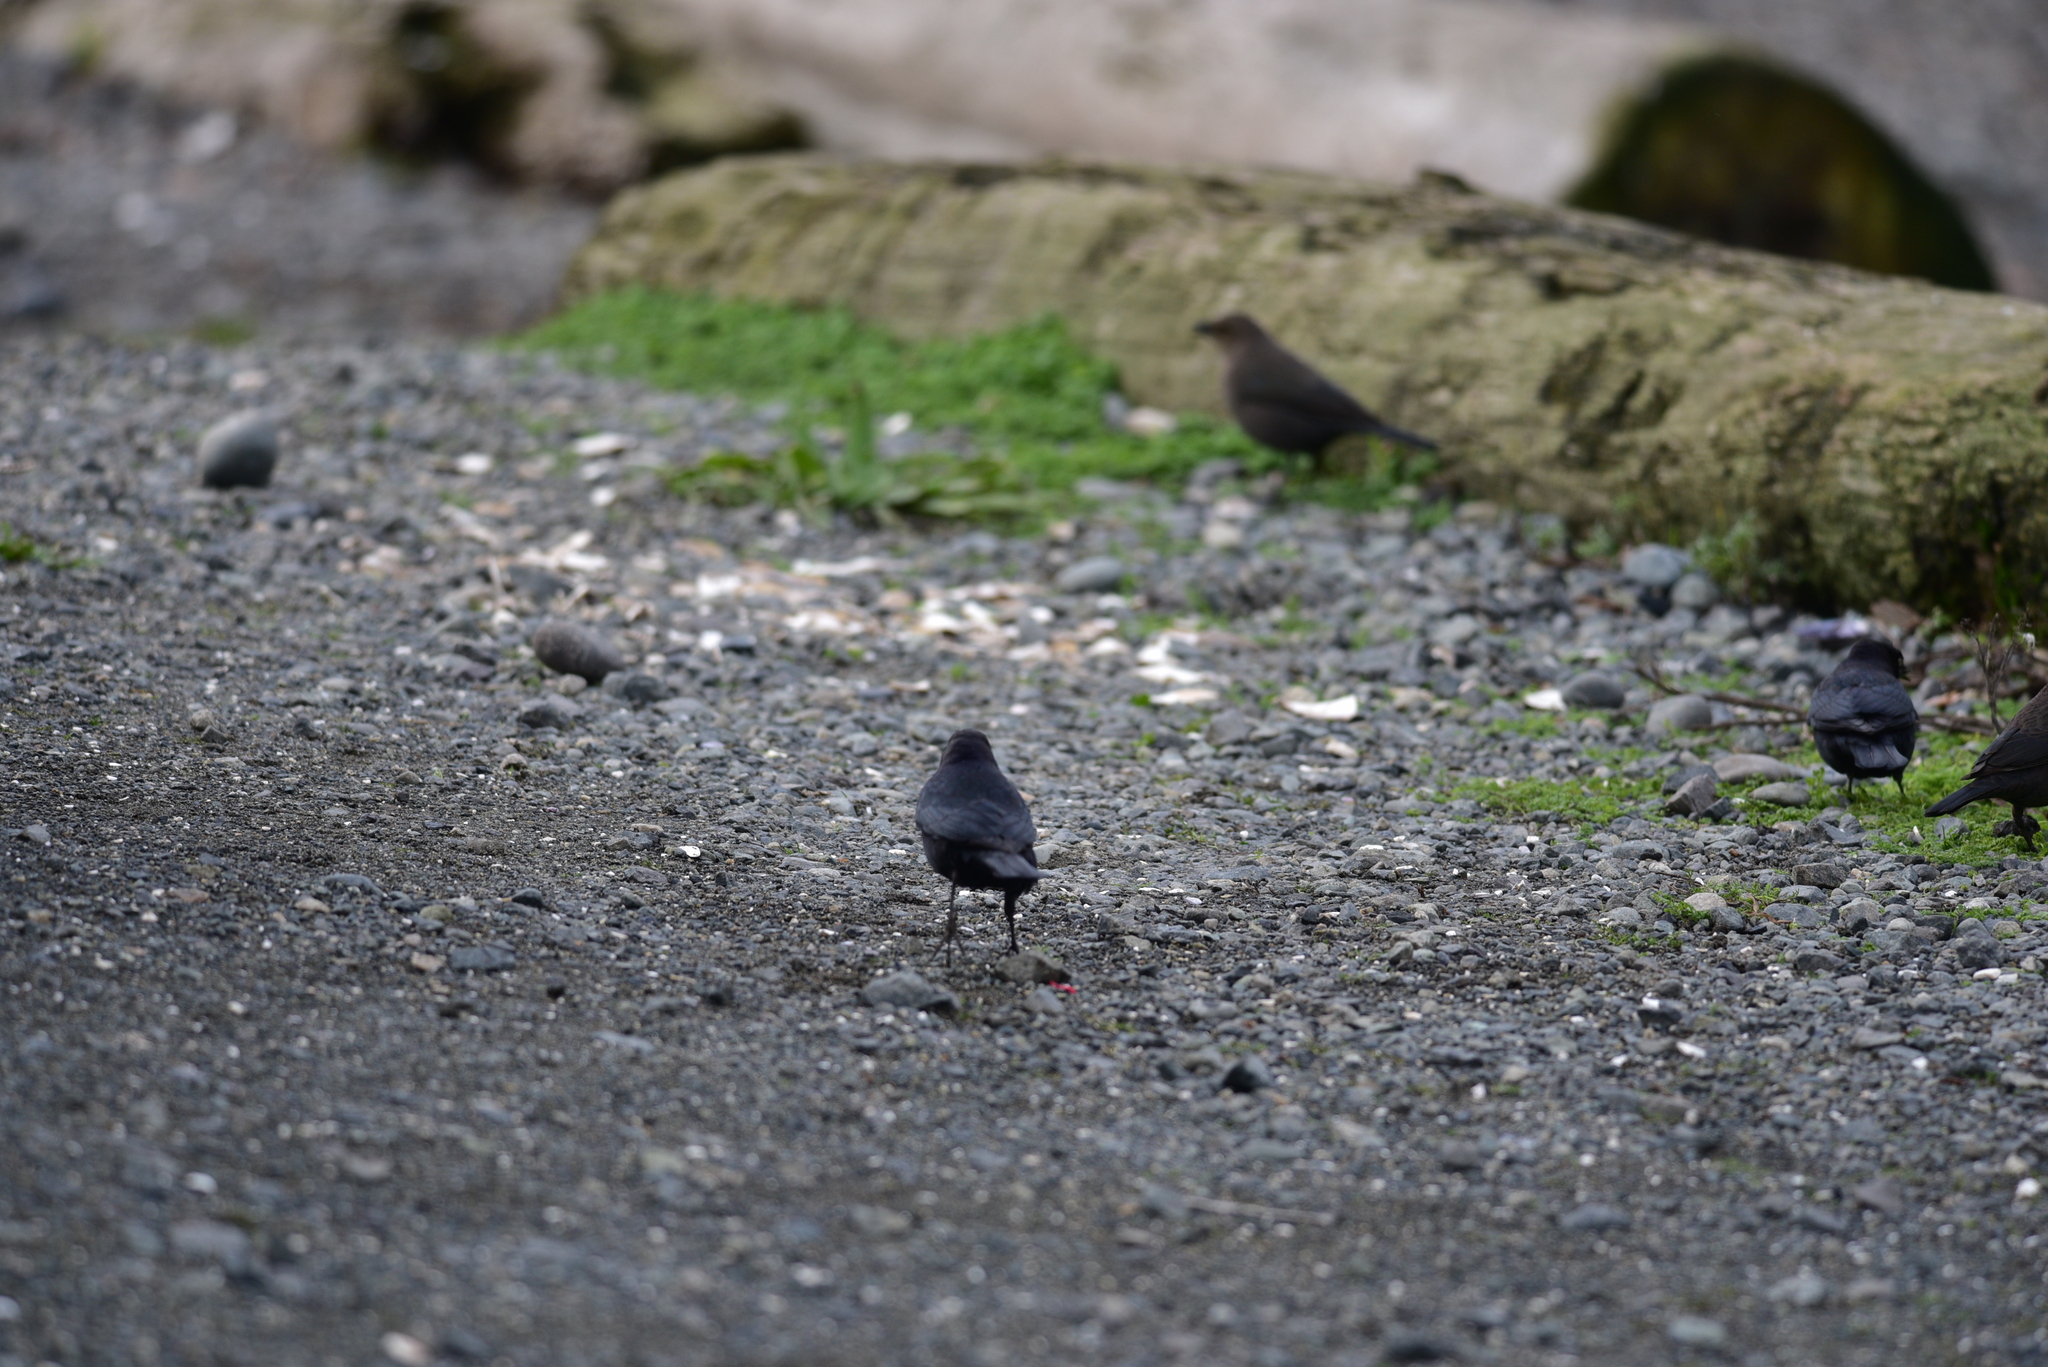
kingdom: Animalia
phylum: Chordata
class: Aves
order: Passeriformes
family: Icteridae
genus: Euphagus
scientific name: Euphagus cyanocephalus
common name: Brewer's blackbird
